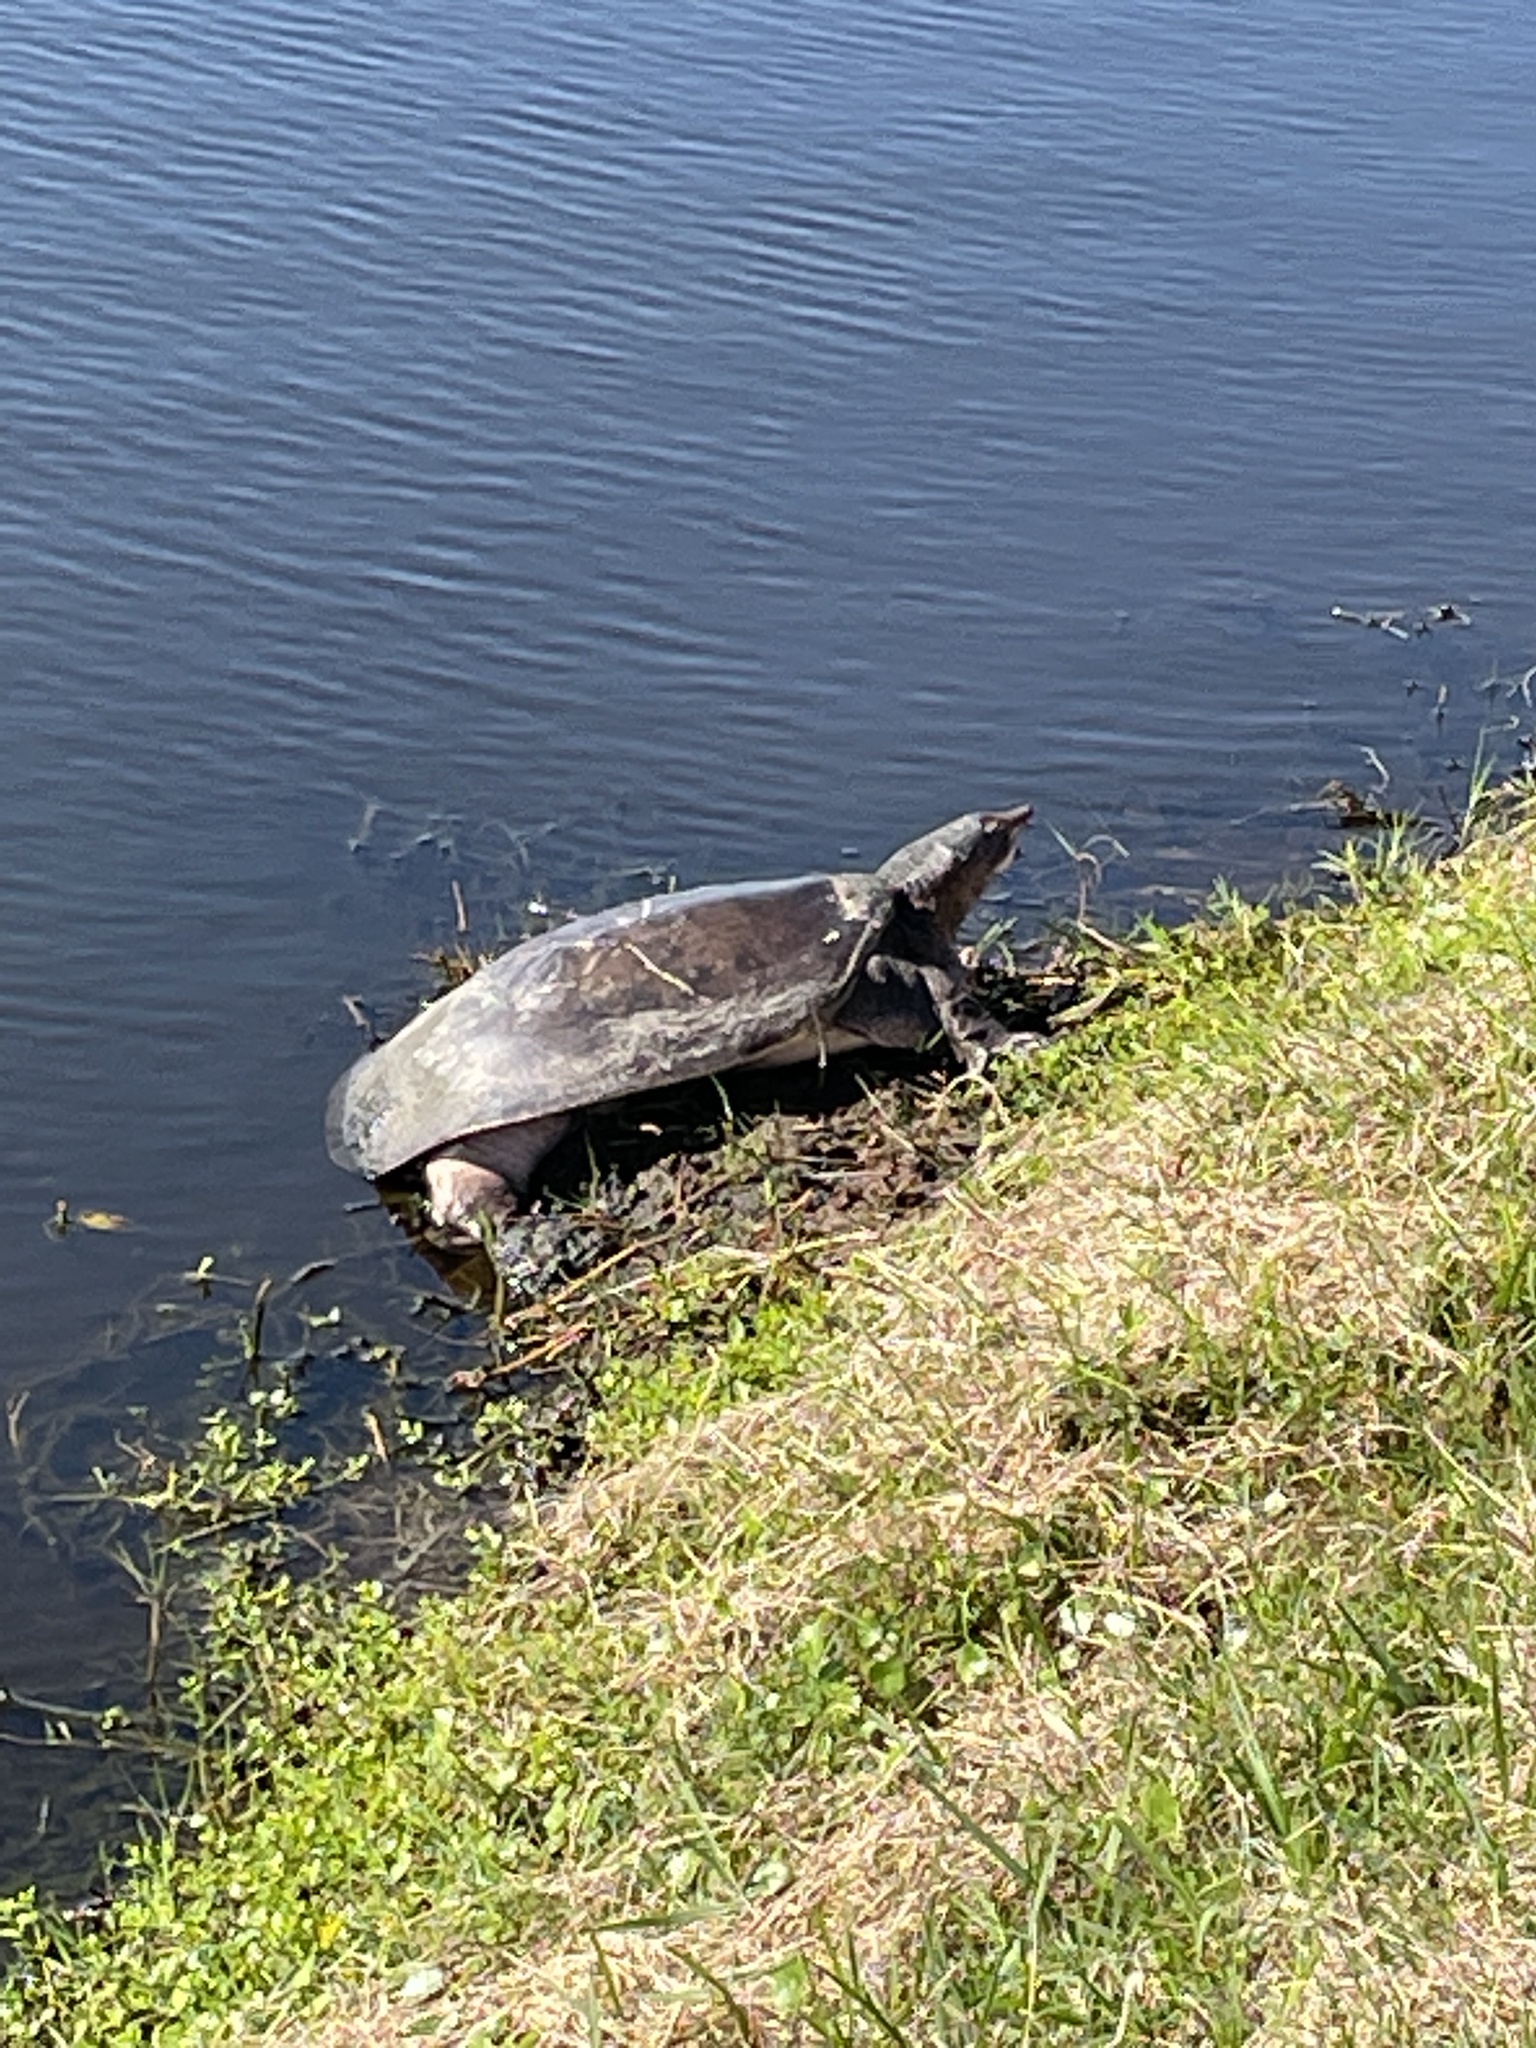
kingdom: Animalia
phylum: Chordata
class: Testudines
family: Trionychidae
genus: Apalone
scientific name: Apalone ferox
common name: Florida softshell turtle
